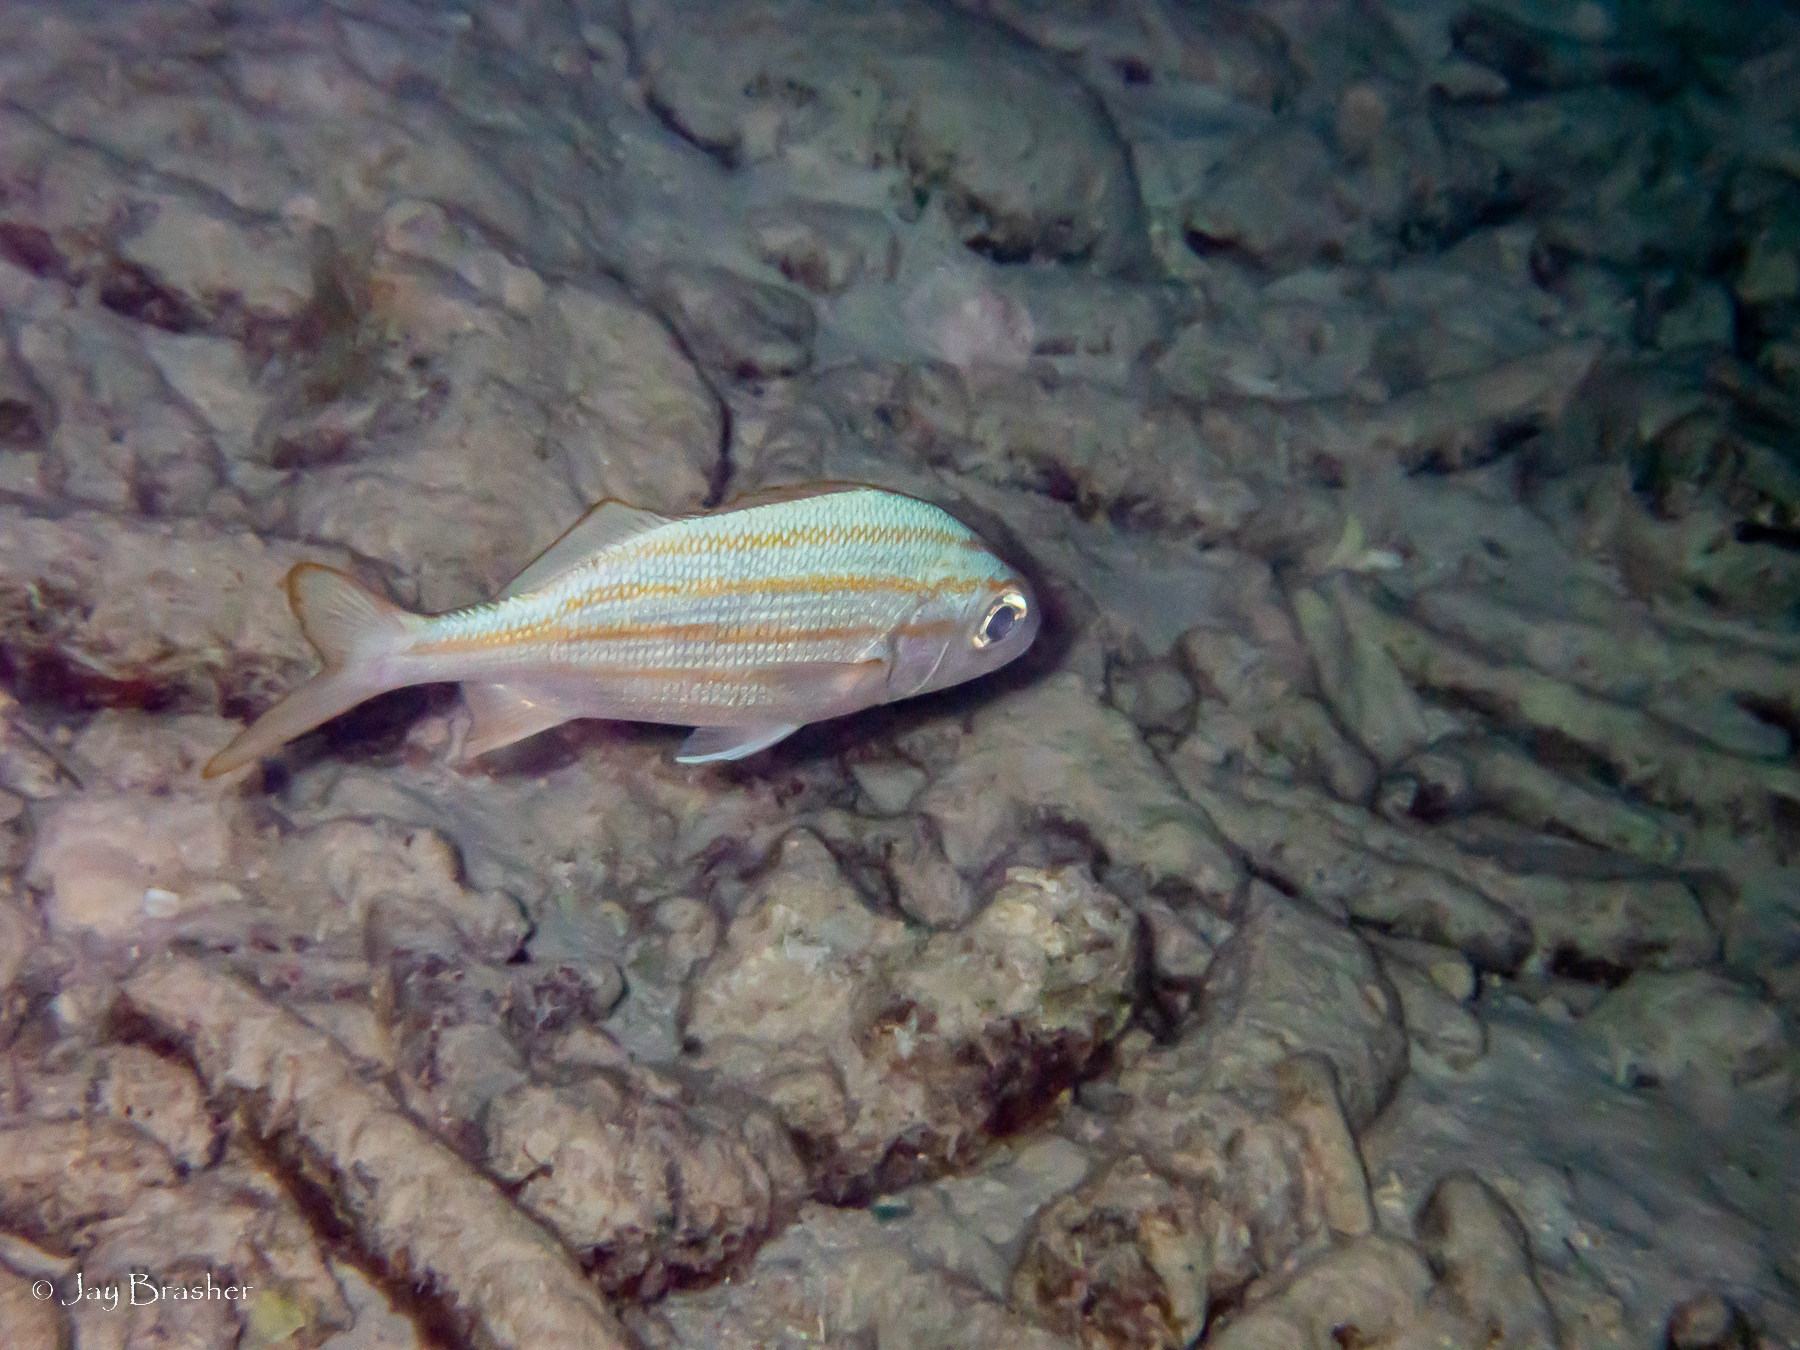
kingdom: Animalia
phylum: Chordata
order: Perciformes
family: Haemulidae
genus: Haemulon
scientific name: Haemulon chrysargyreum
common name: Smallmouth grunt
